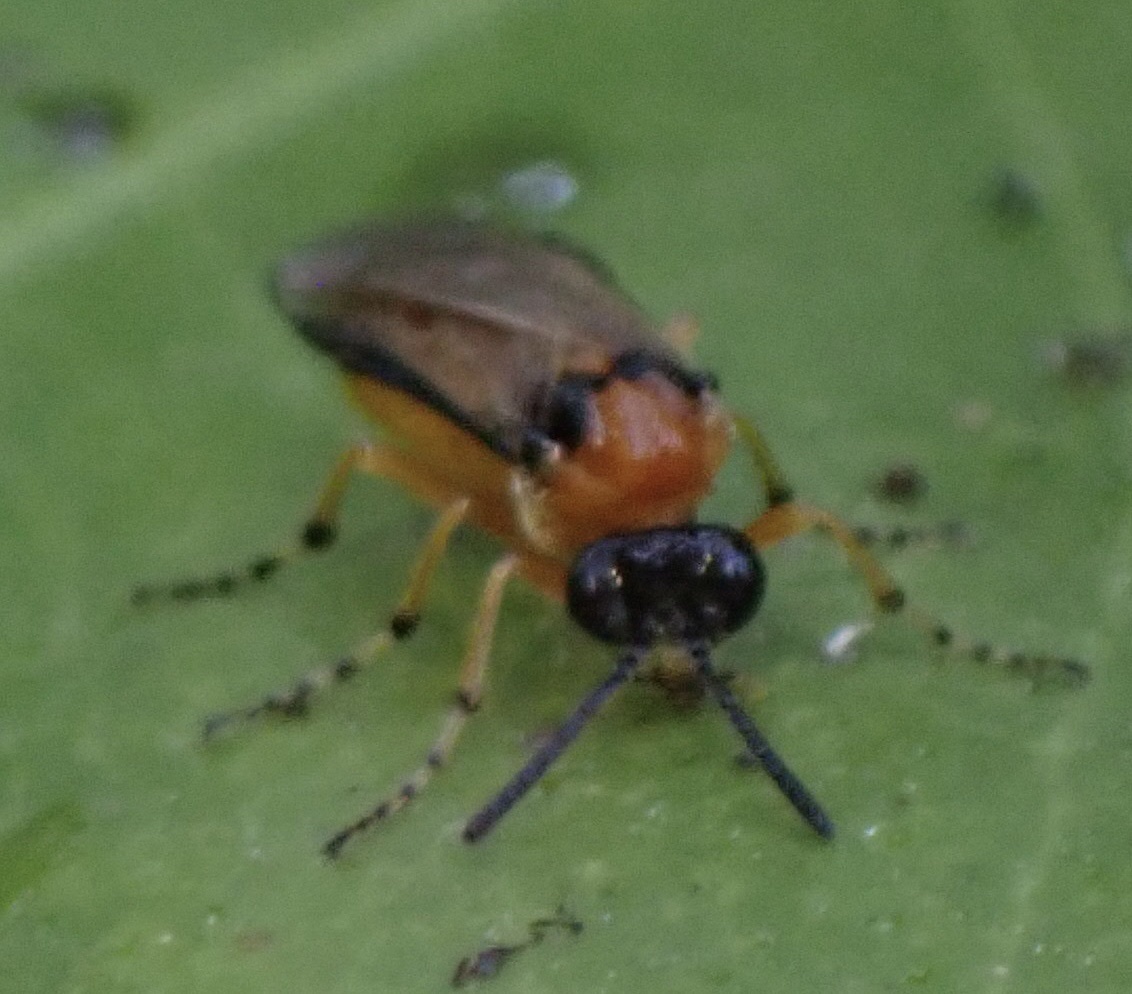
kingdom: Animalia
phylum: Arthropoda
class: Insecta
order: Hymenoptera
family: Tenthredinidae
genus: Athalia
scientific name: Athalia rosae
